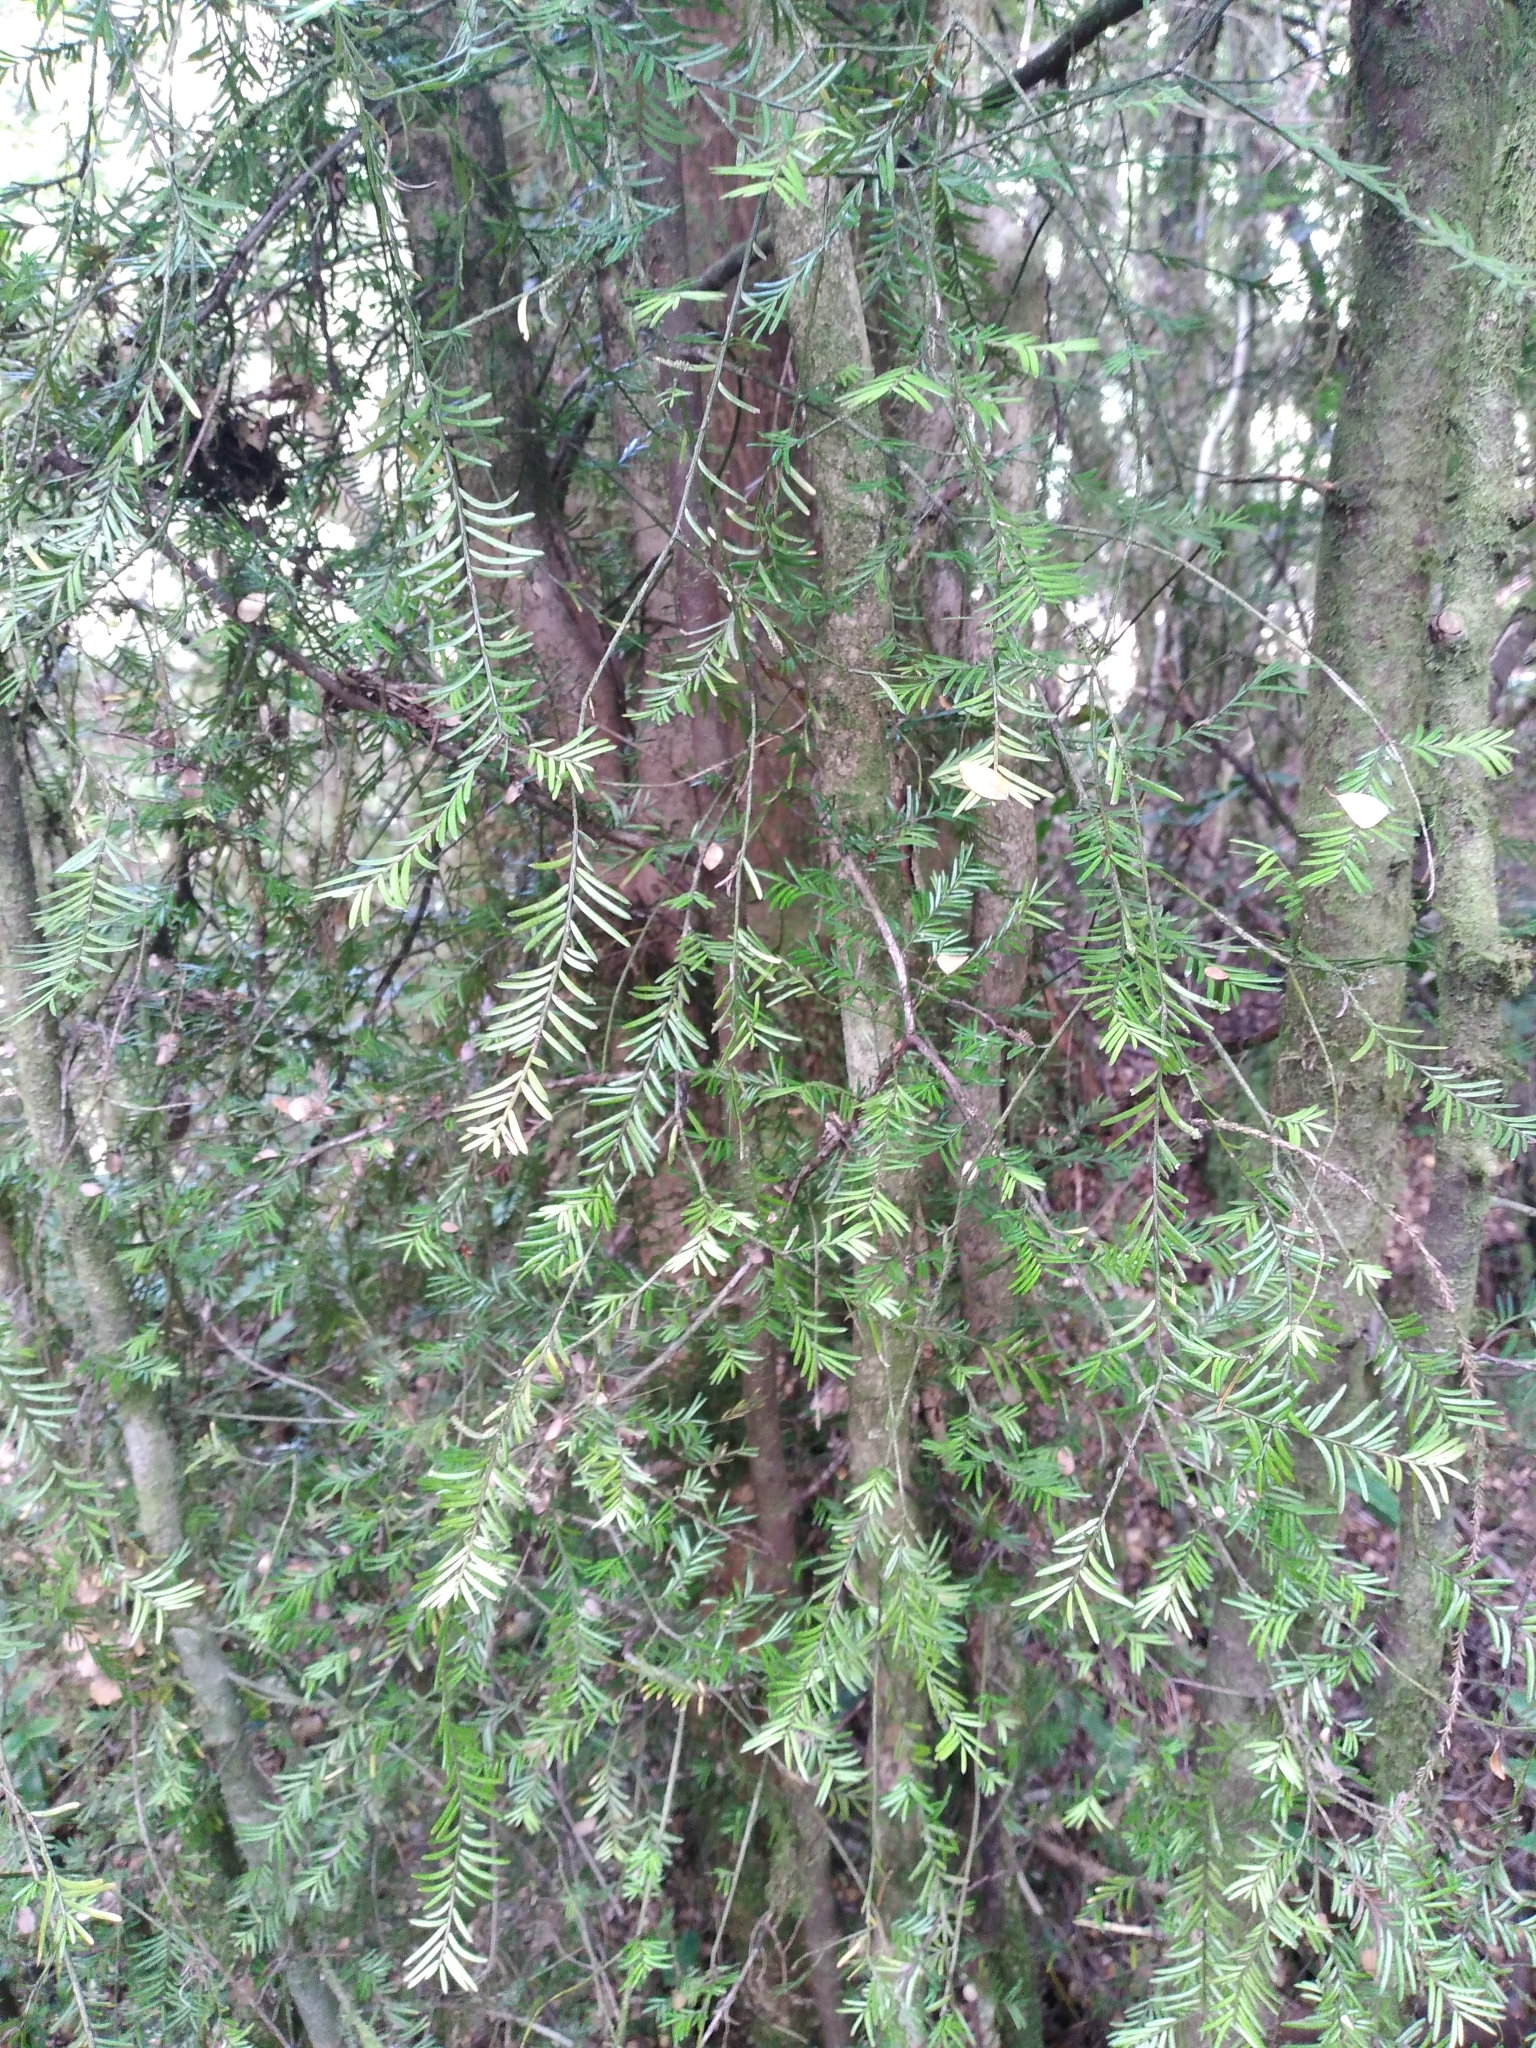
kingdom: Plantae
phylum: Tracheophyta
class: Pinopsida
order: Pinales
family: Podocarpaceae
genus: Prumnopitys
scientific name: Prumnopitys taxifolia
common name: Matai
